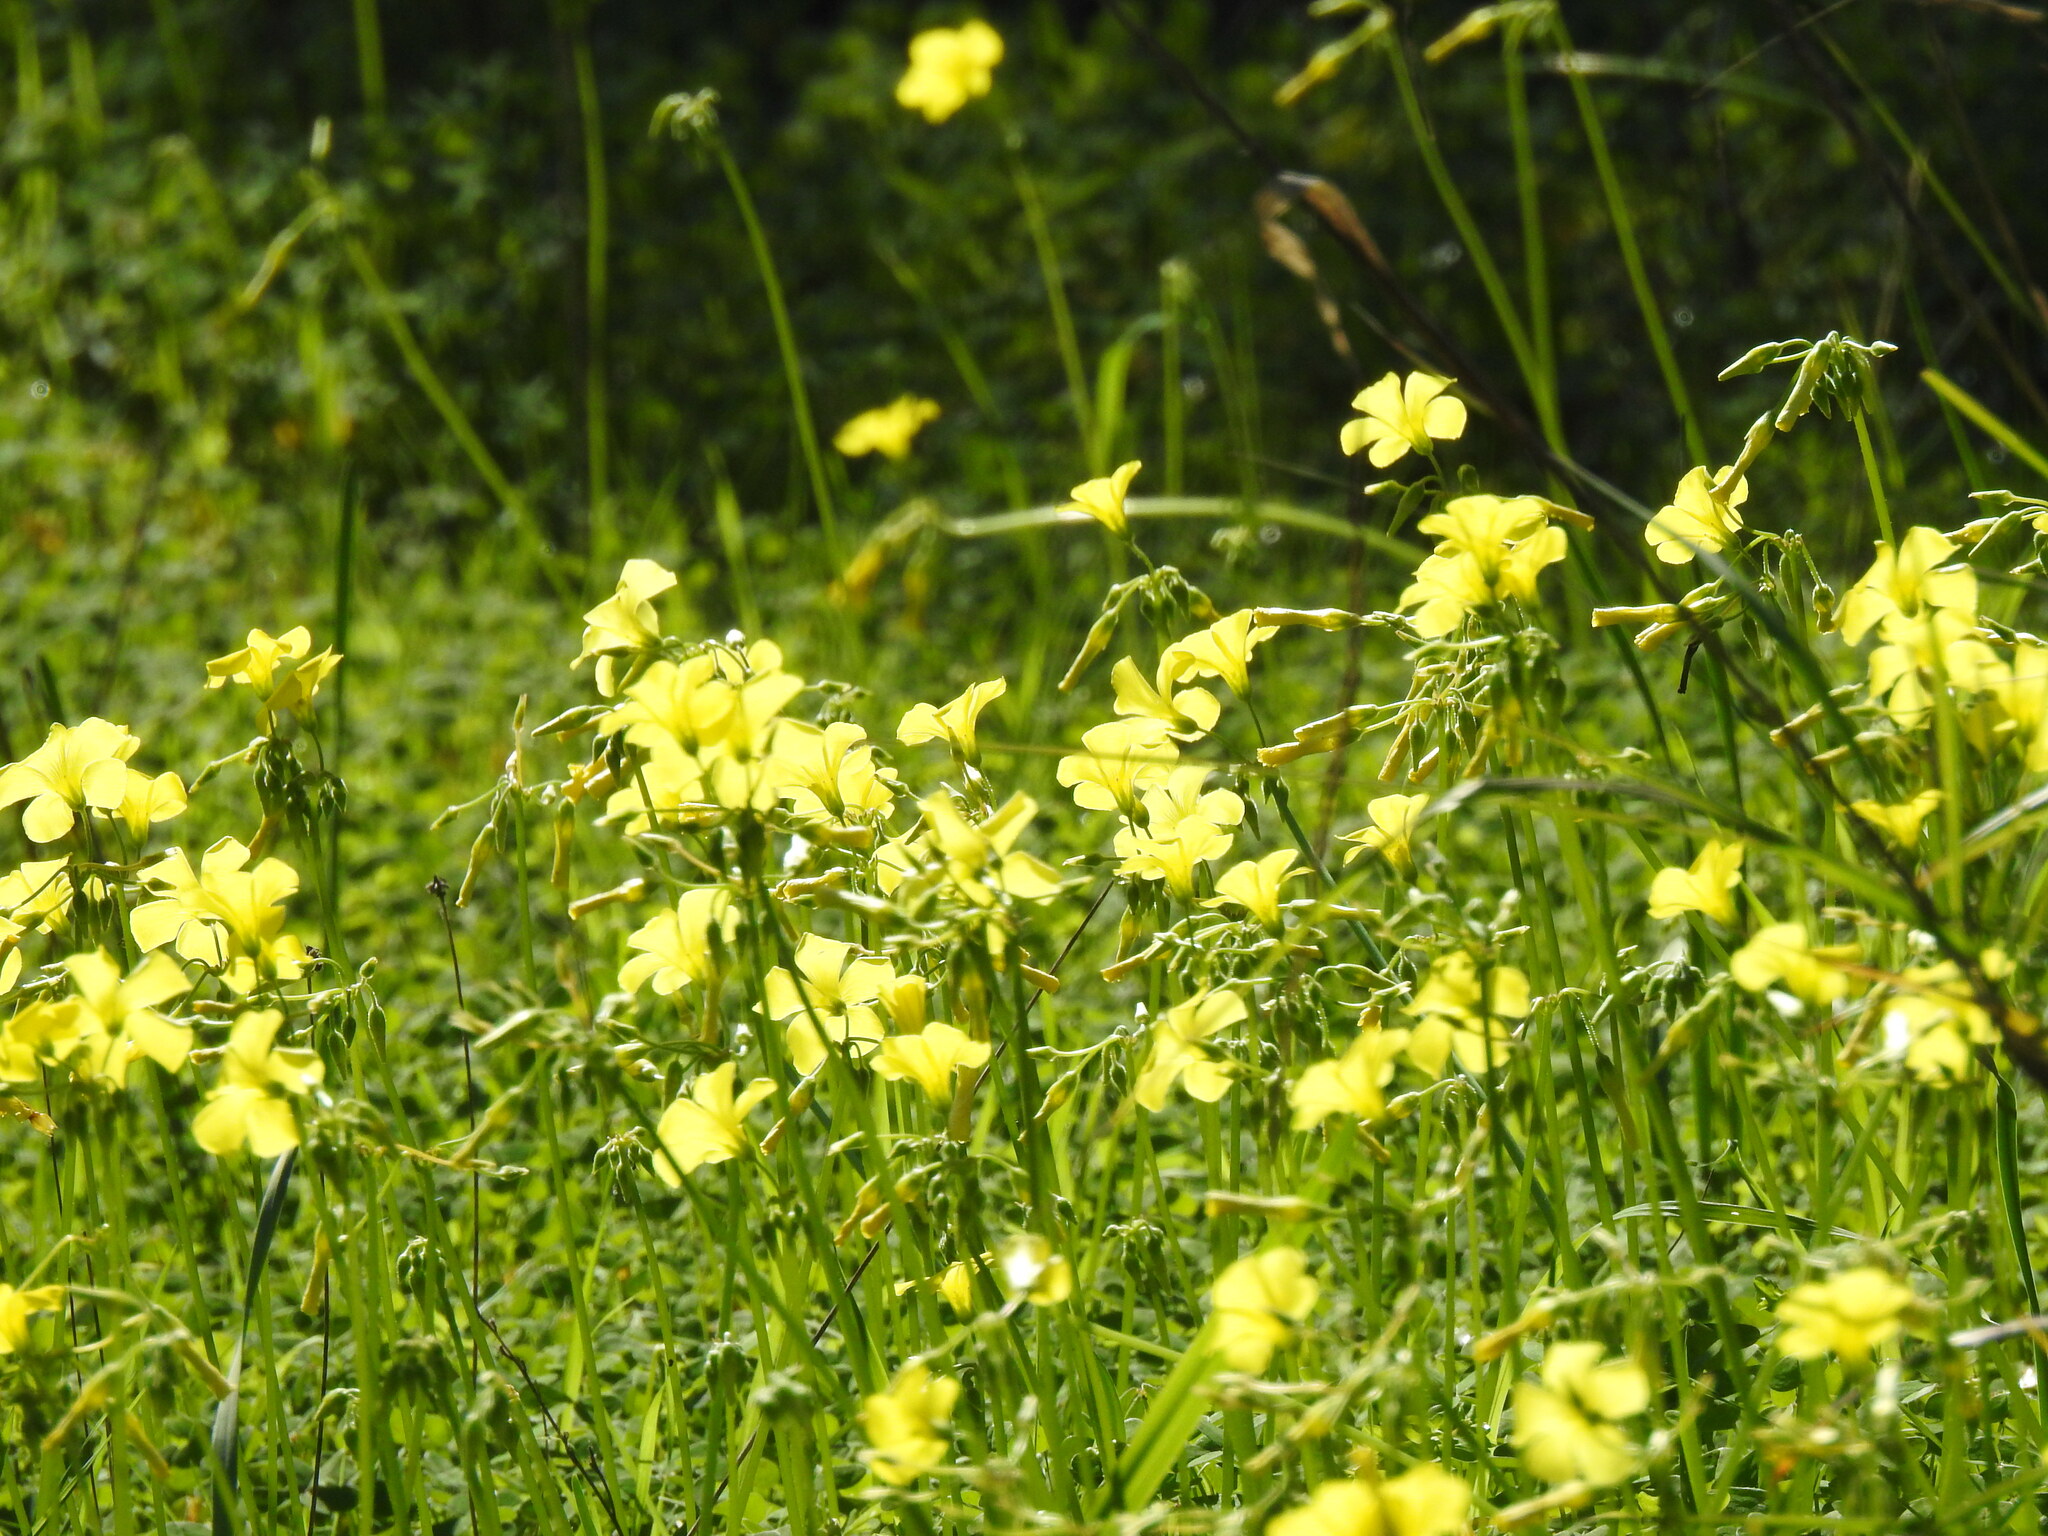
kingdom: Plantae
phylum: Tracheophyta
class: Magnoliopsida
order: Oxalidales
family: Oxalidaceae
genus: Oxalis
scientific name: Oxalis pes-caprae
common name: Bermuda-buttercup
